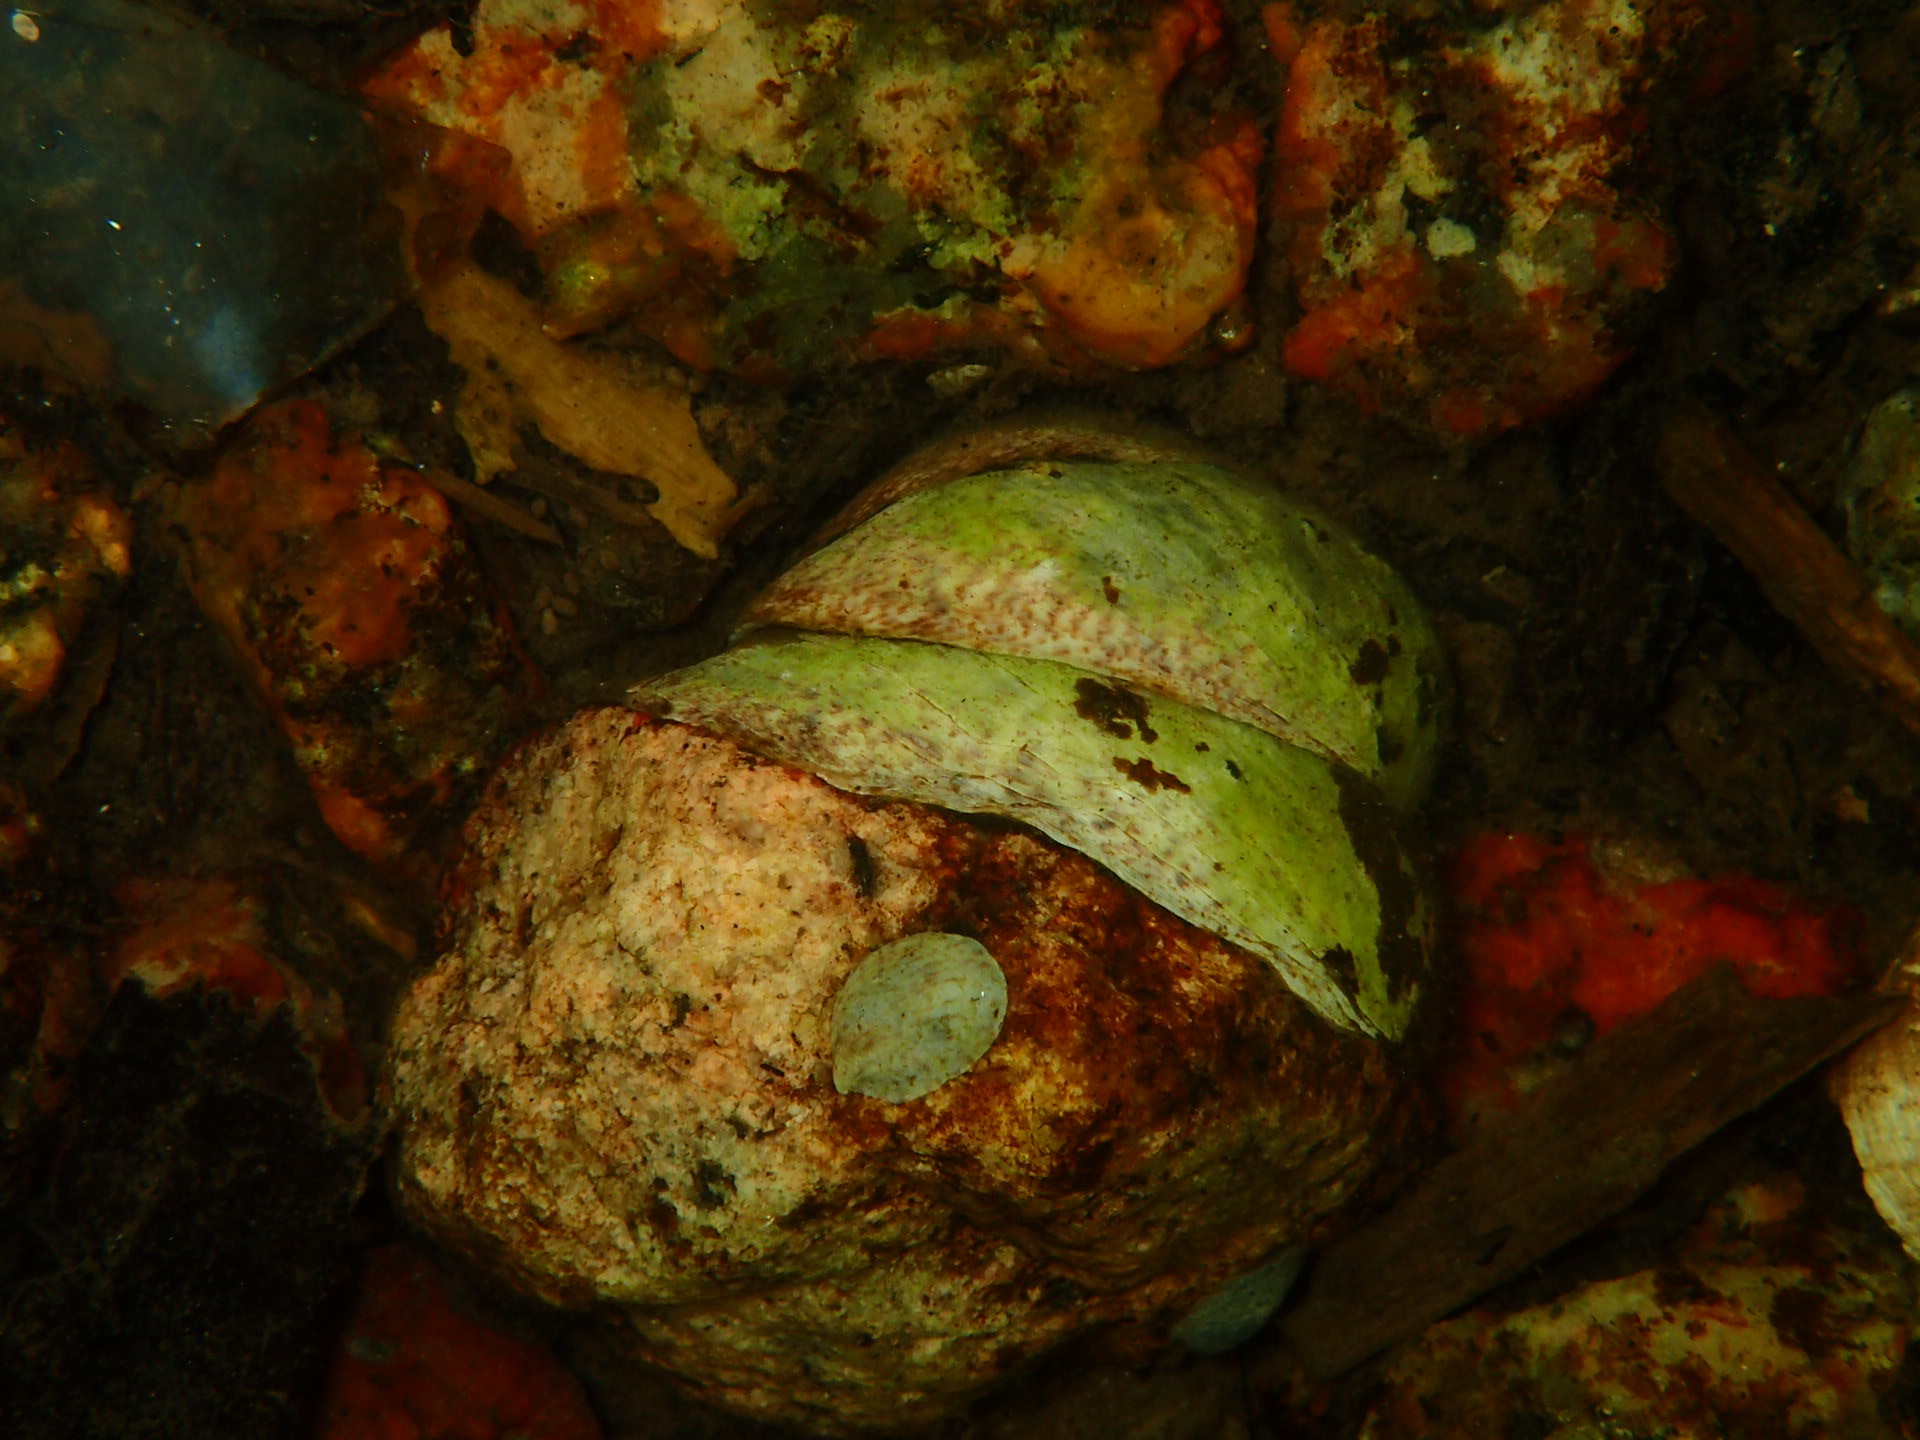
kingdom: Animalia
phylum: Mollusca
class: Gastropoda
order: Littorinimorpha
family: Calyptraeidae
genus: Crepidula
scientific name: Crepidula fornicata
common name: Slipper limpet
